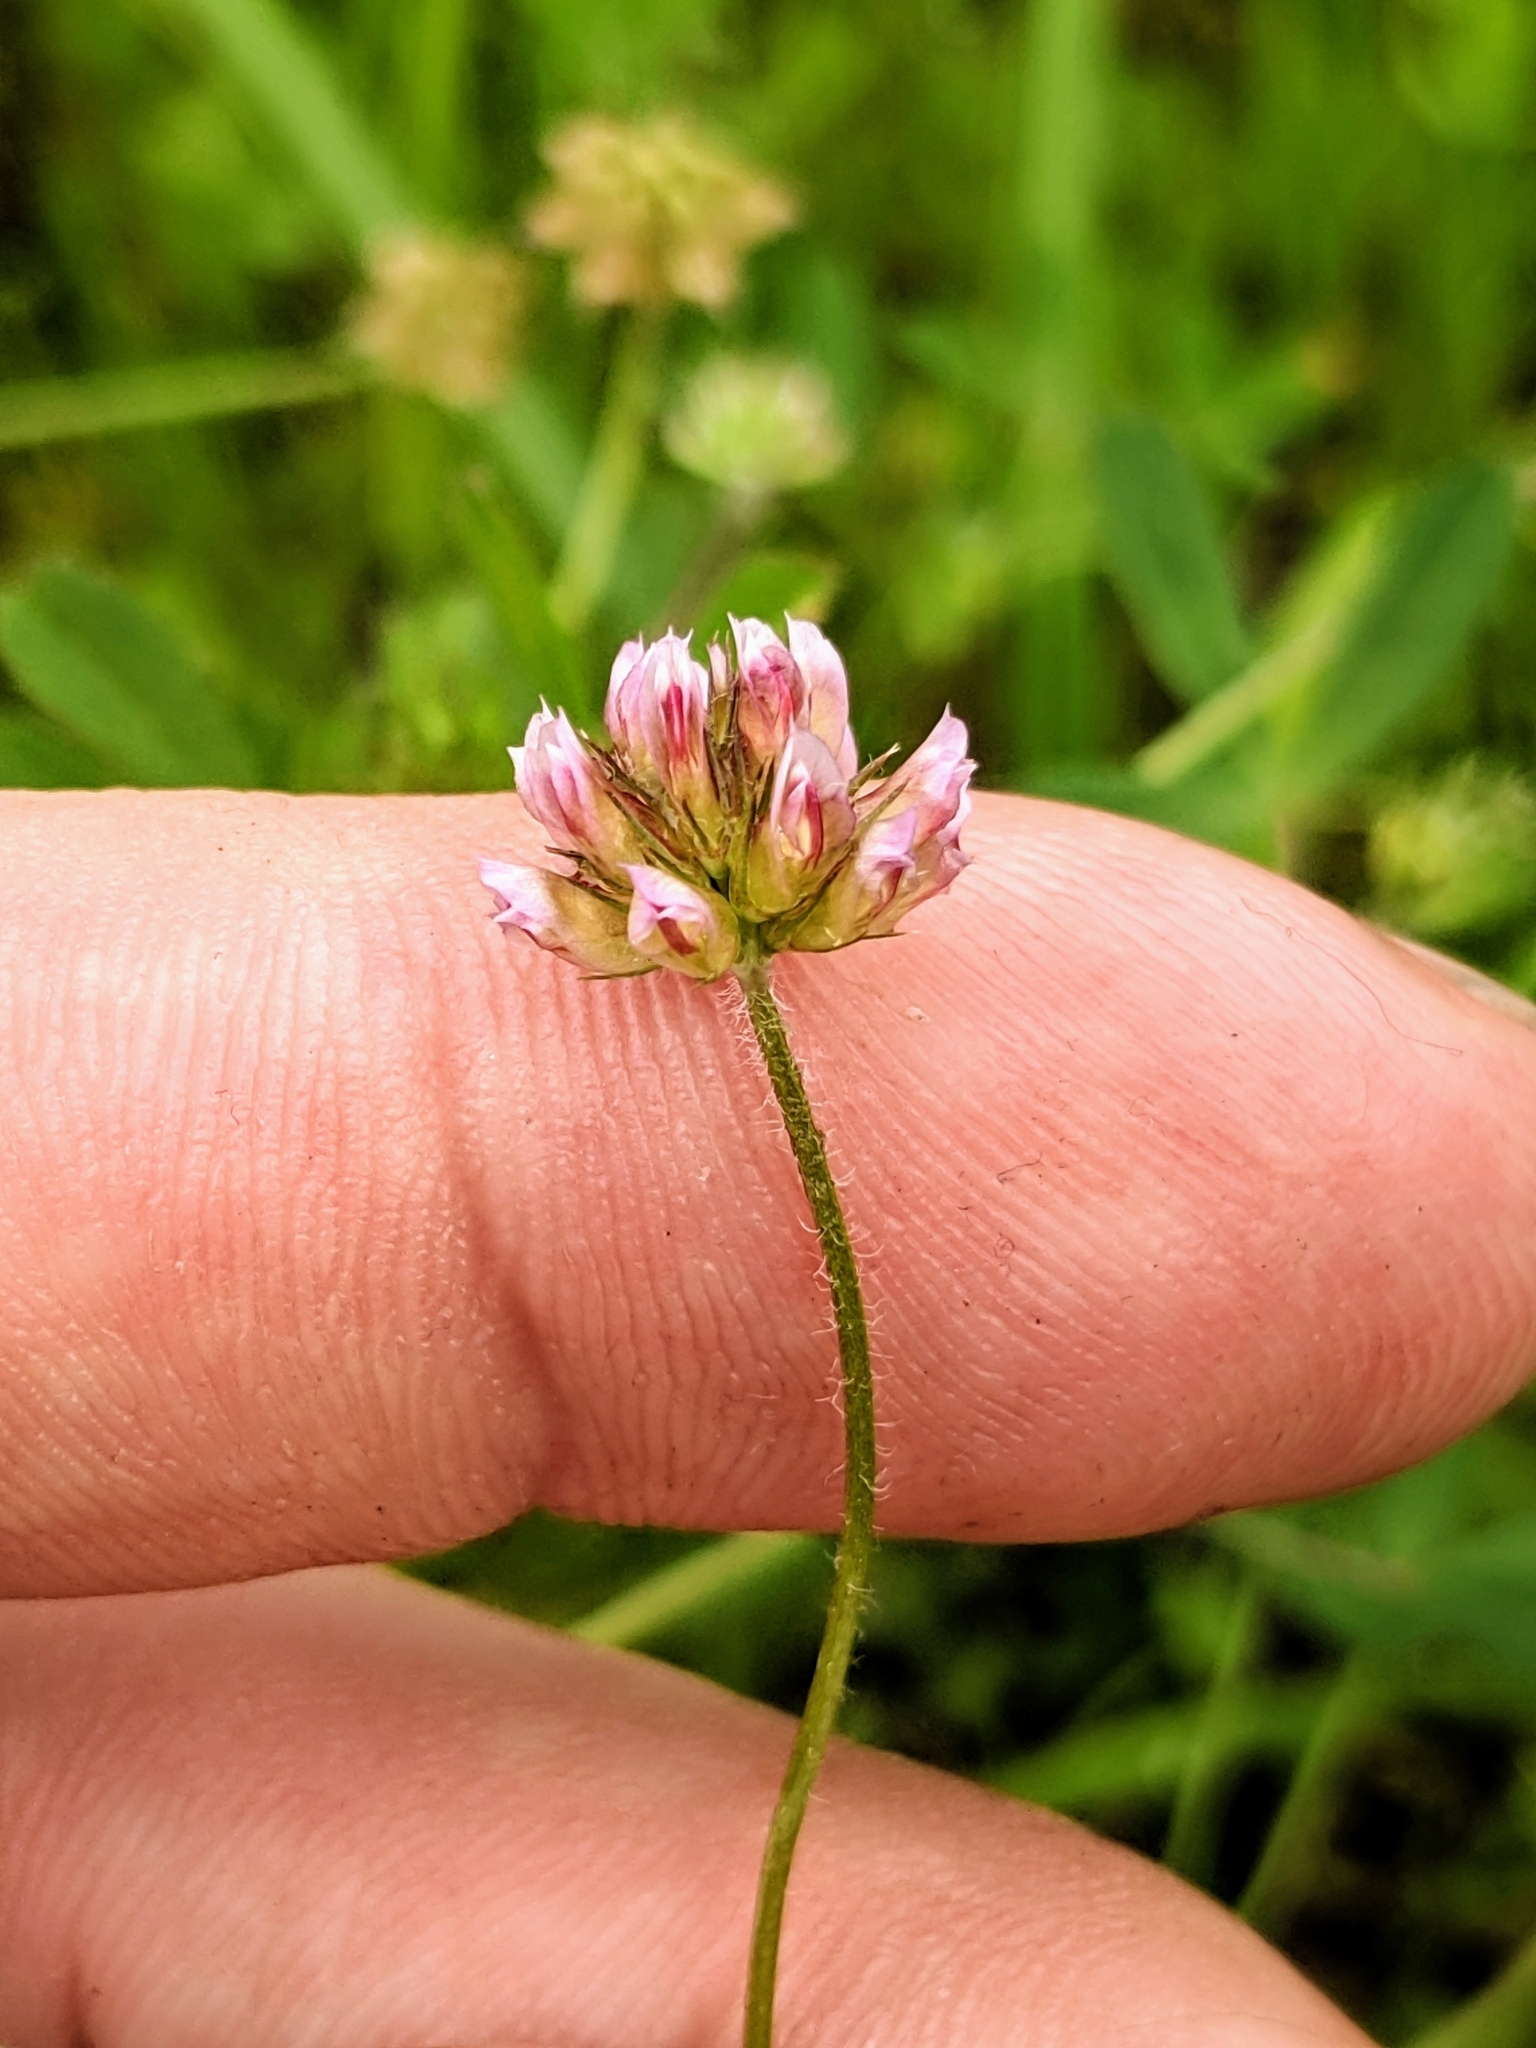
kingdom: Plantae
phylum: Tracheophyta
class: Magnoliopsida
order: Fabales
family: Fabaceae
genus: Trifolium
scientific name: Trifolium bifidum
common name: Notch-leaf clover
